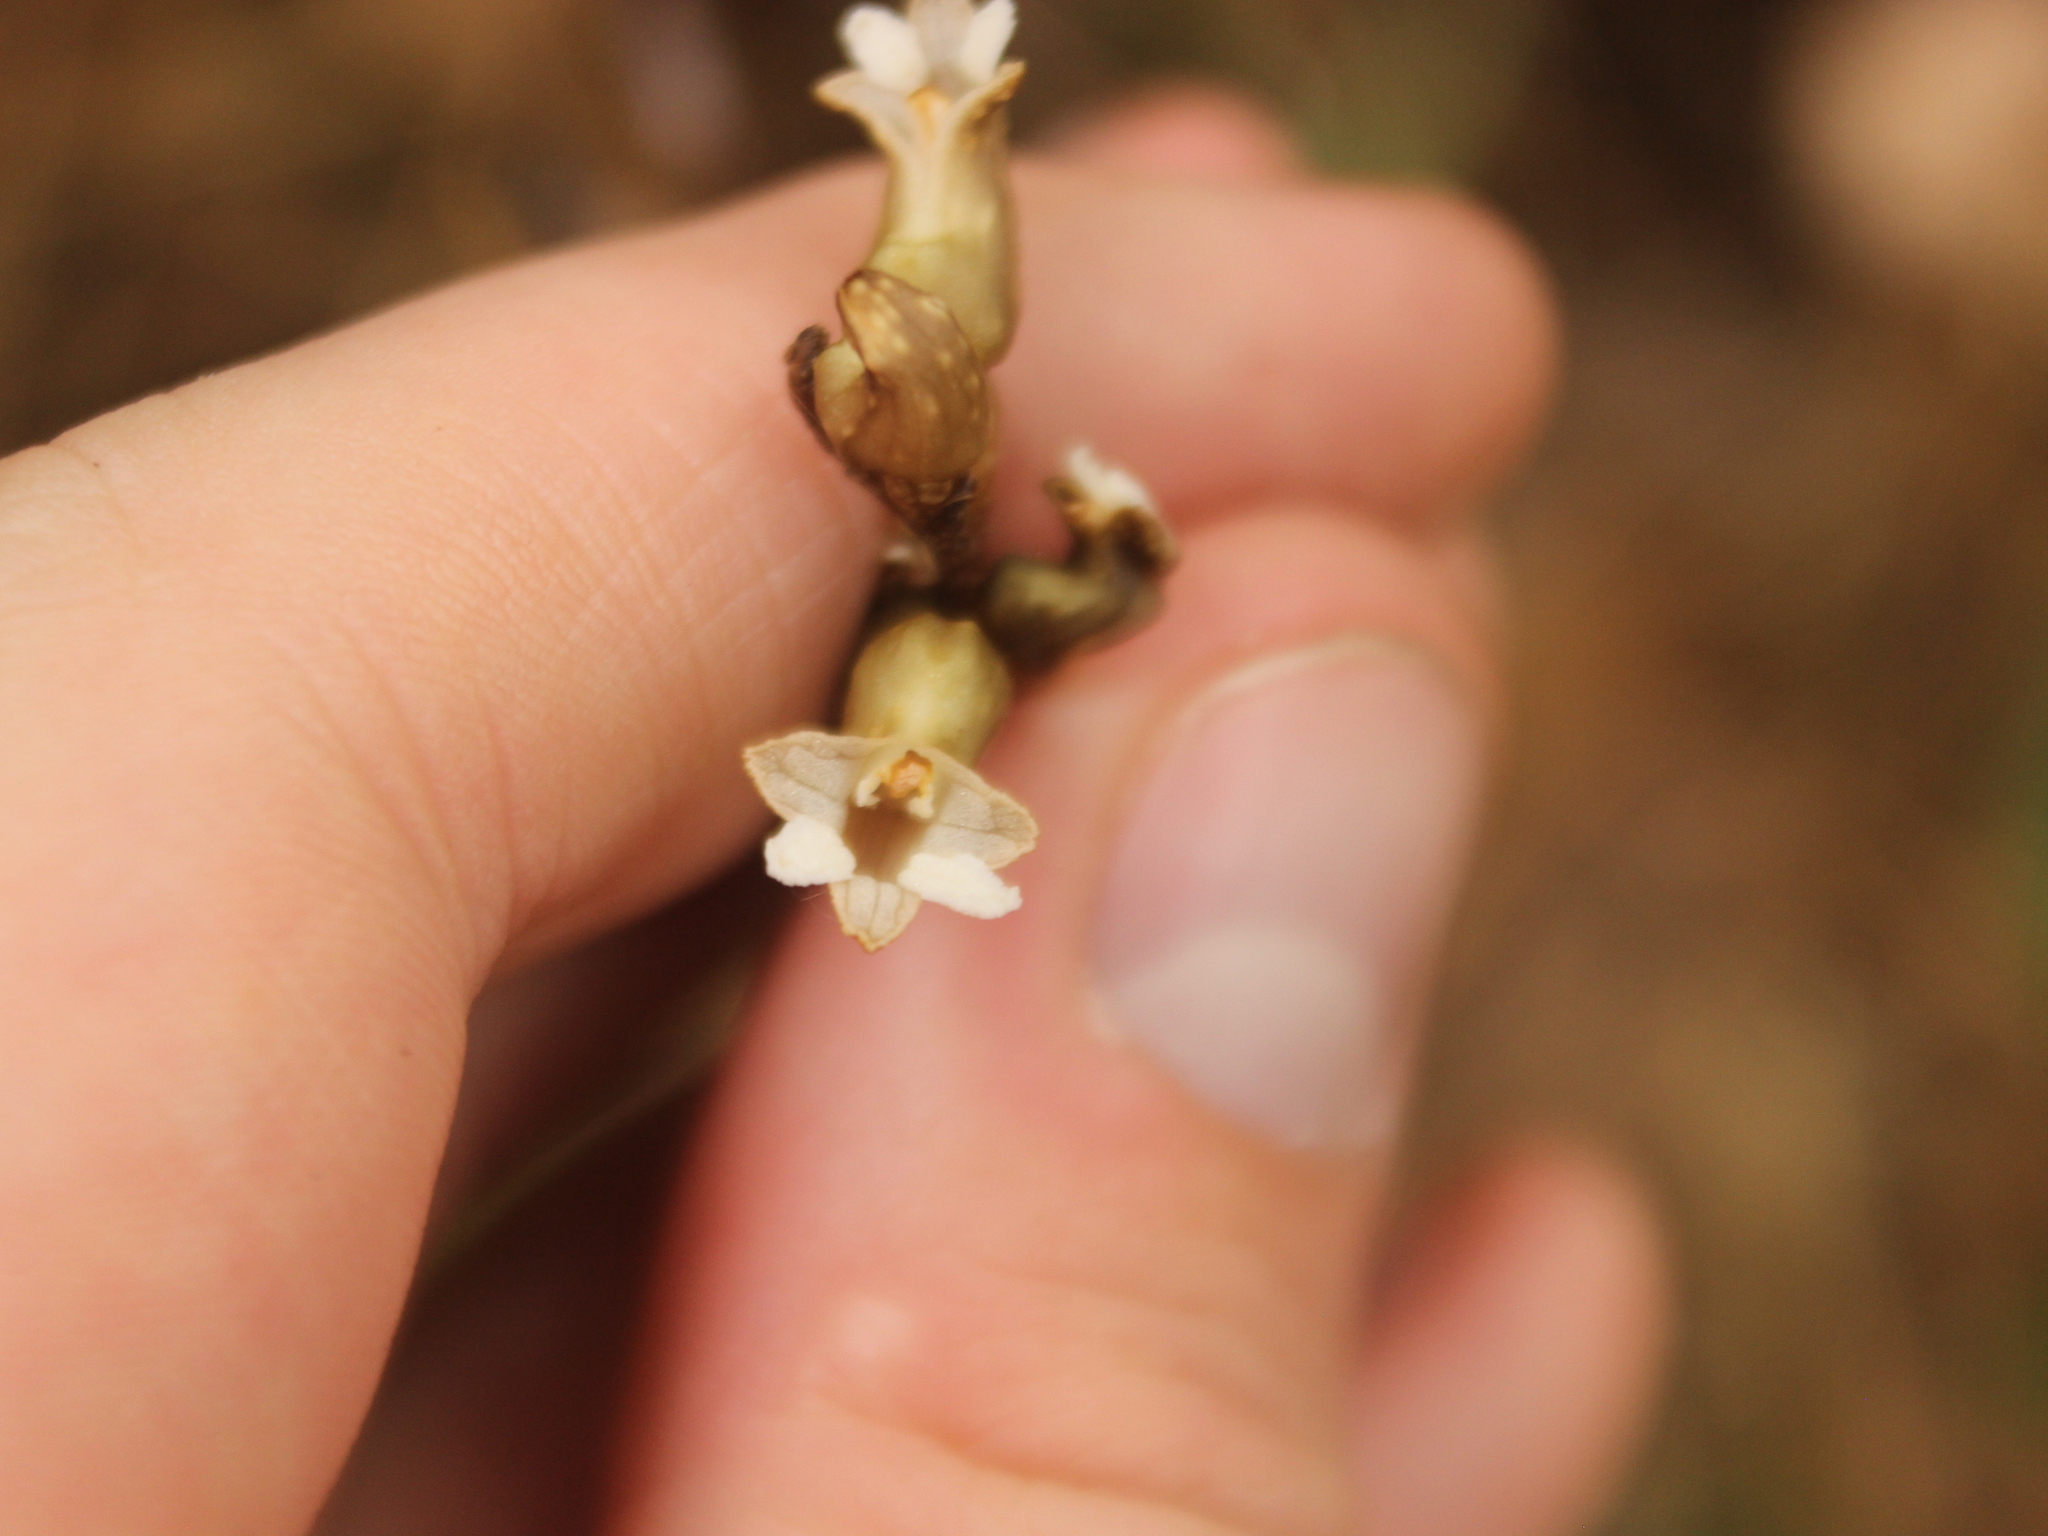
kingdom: Plantae
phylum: Tracheophyta
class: Liliopsida
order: Asparagales
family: Orchidaceae
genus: Gastrodia
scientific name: Gastrodia cunninghamii
